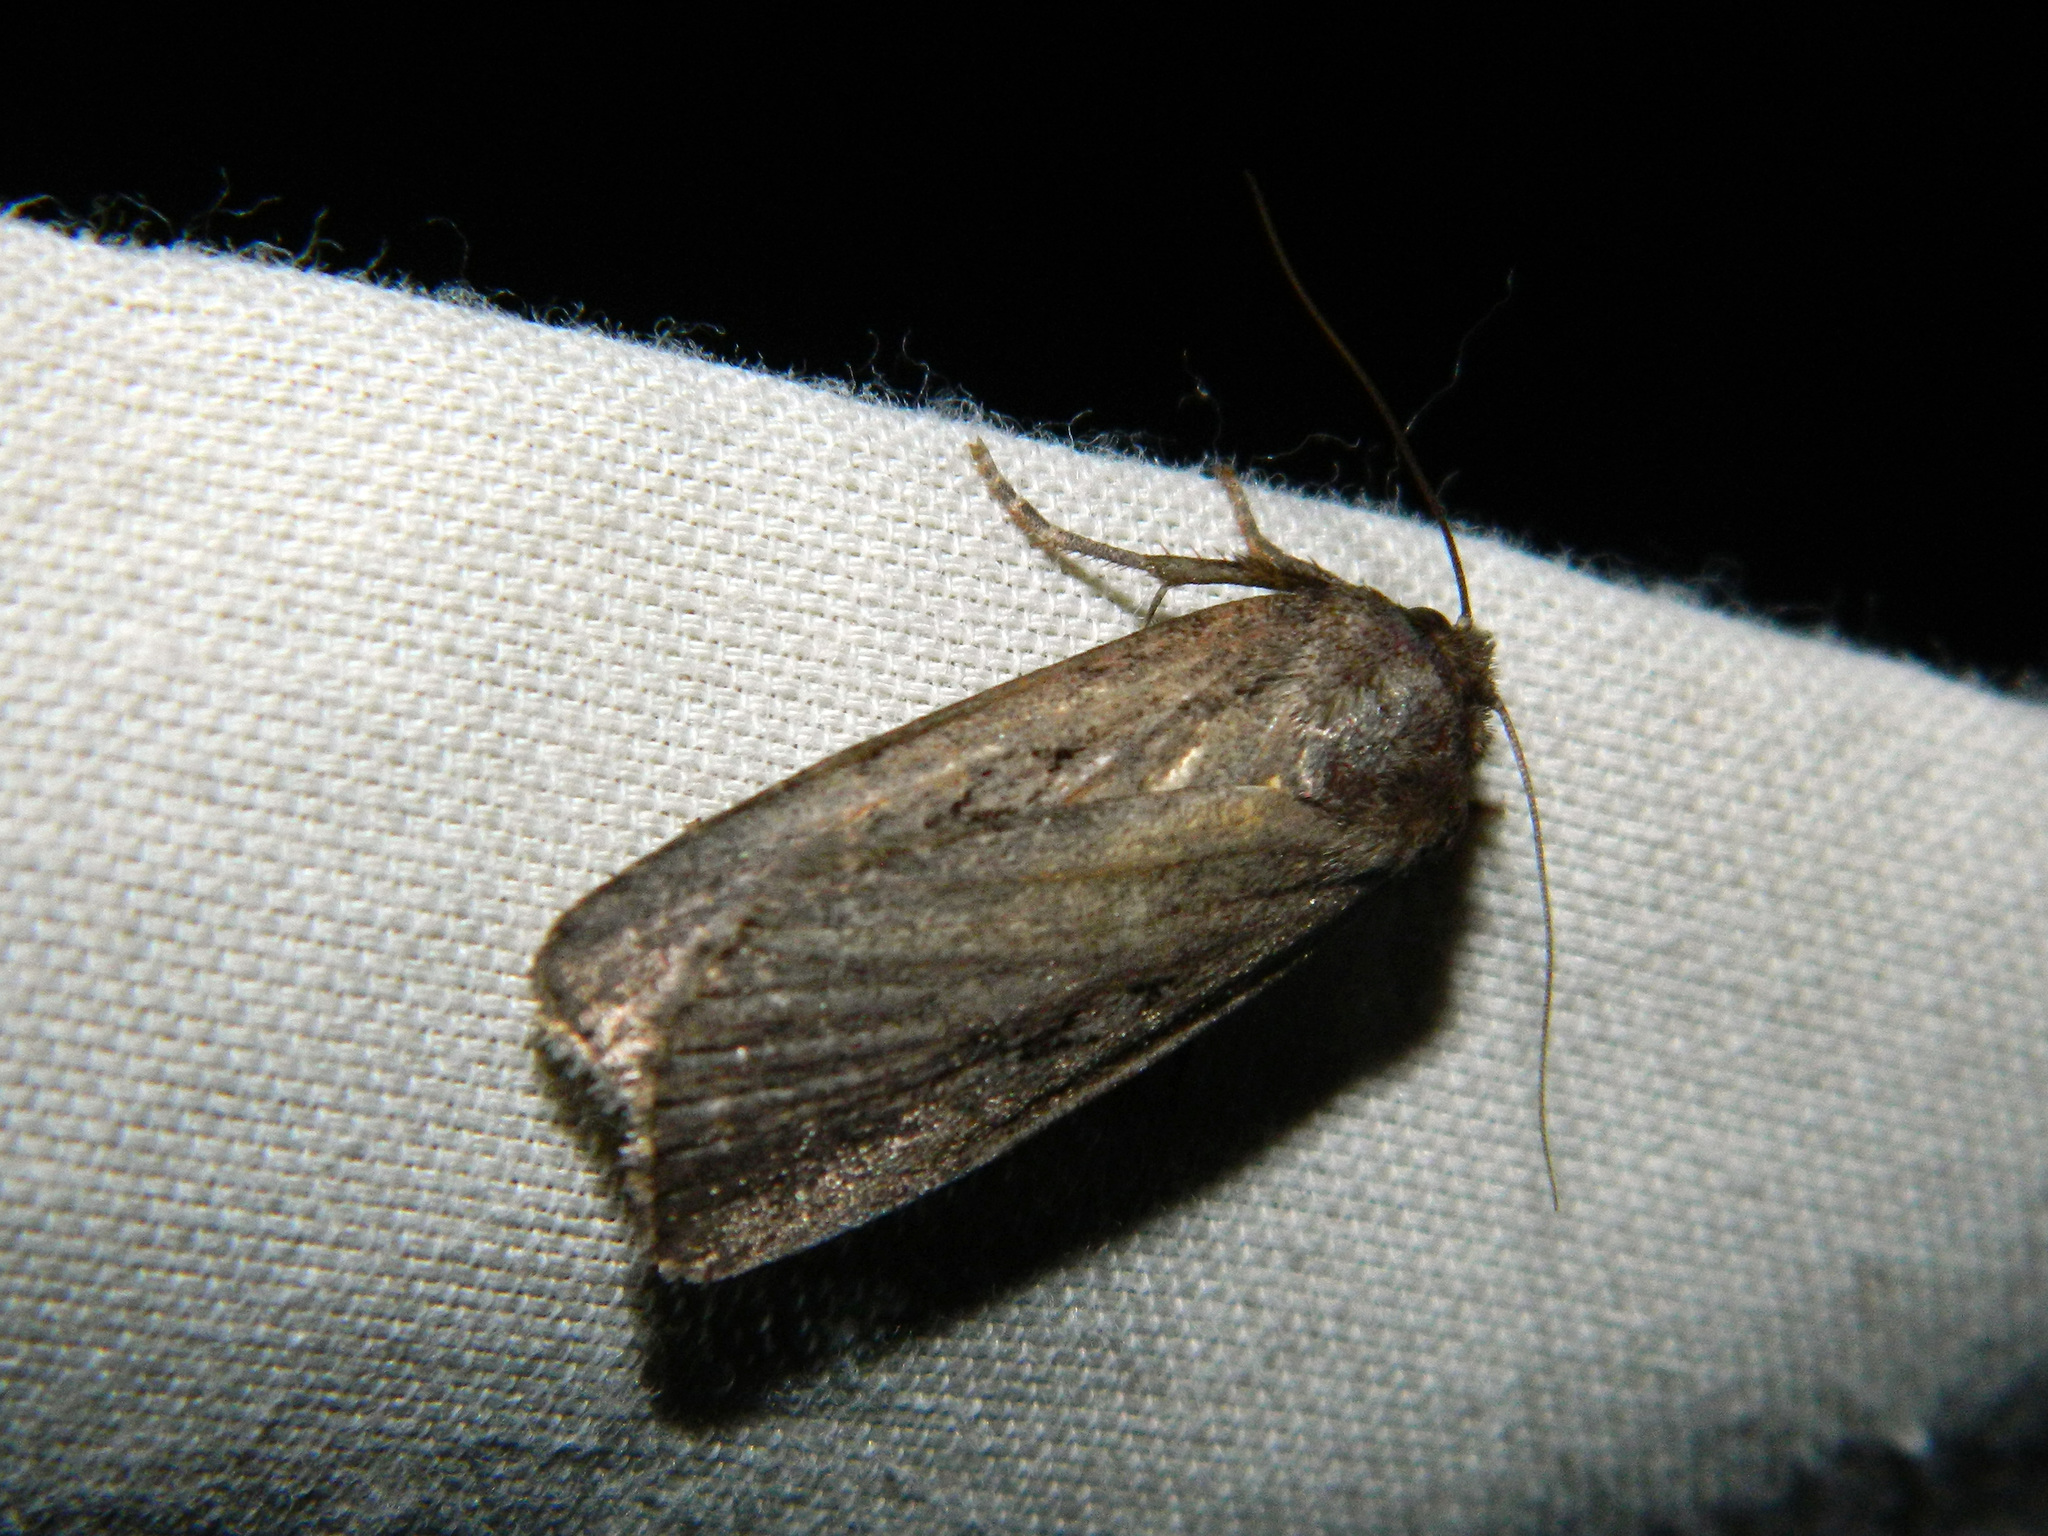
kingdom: Animalia
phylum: Arthropoda
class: Insecta
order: Lepidoptera
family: Noctuidae
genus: Spaelotis
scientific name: Spaelotis clandestina
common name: Clandestine dart
